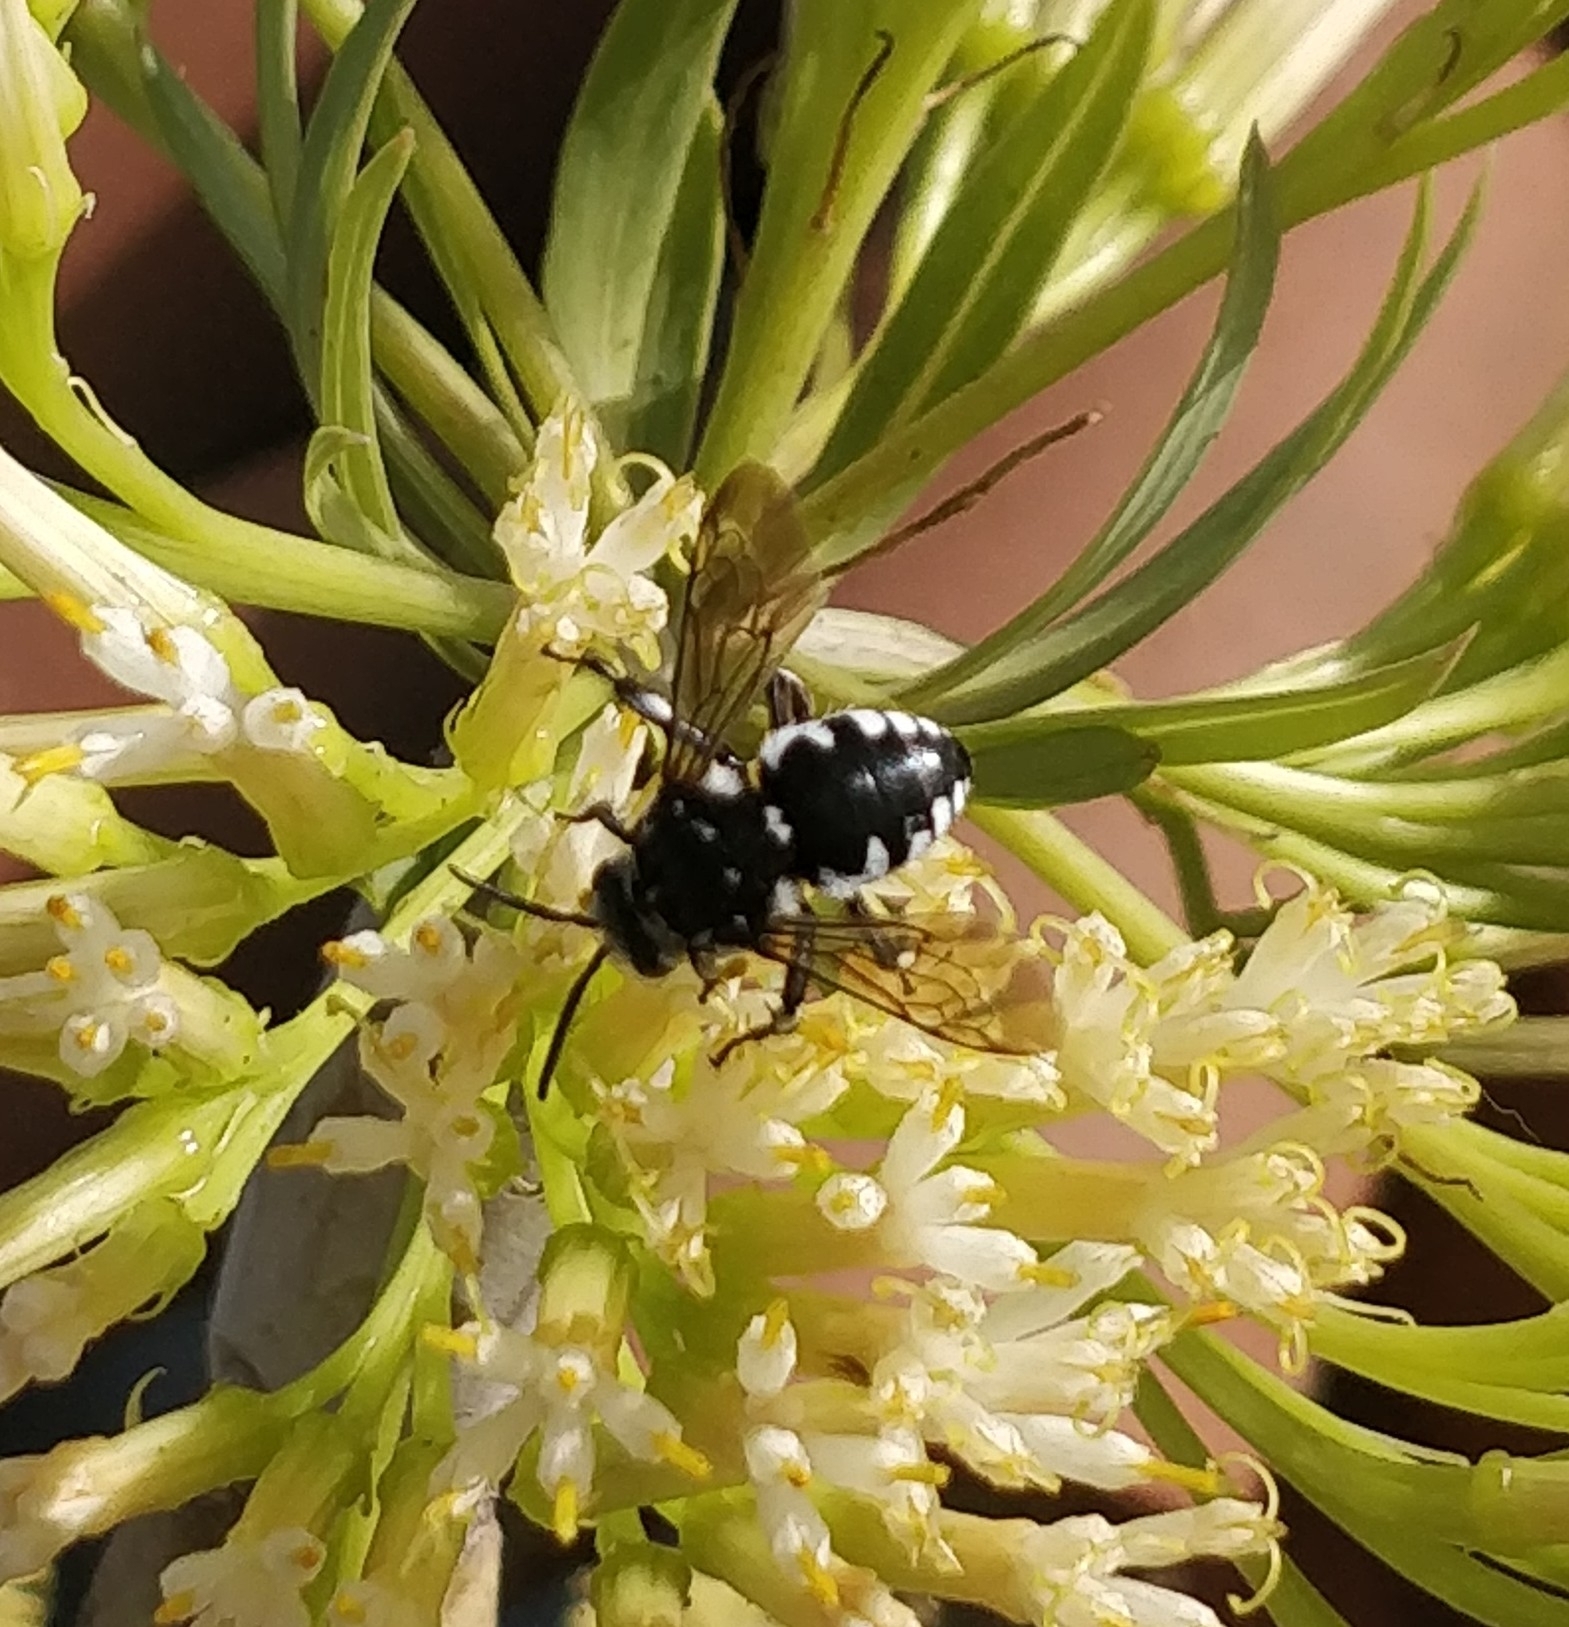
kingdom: Animalia
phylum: Arthropoda
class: Insecta
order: Hymenoptera
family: Apidae
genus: Thyreus
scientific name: Thyreus histrionicus
